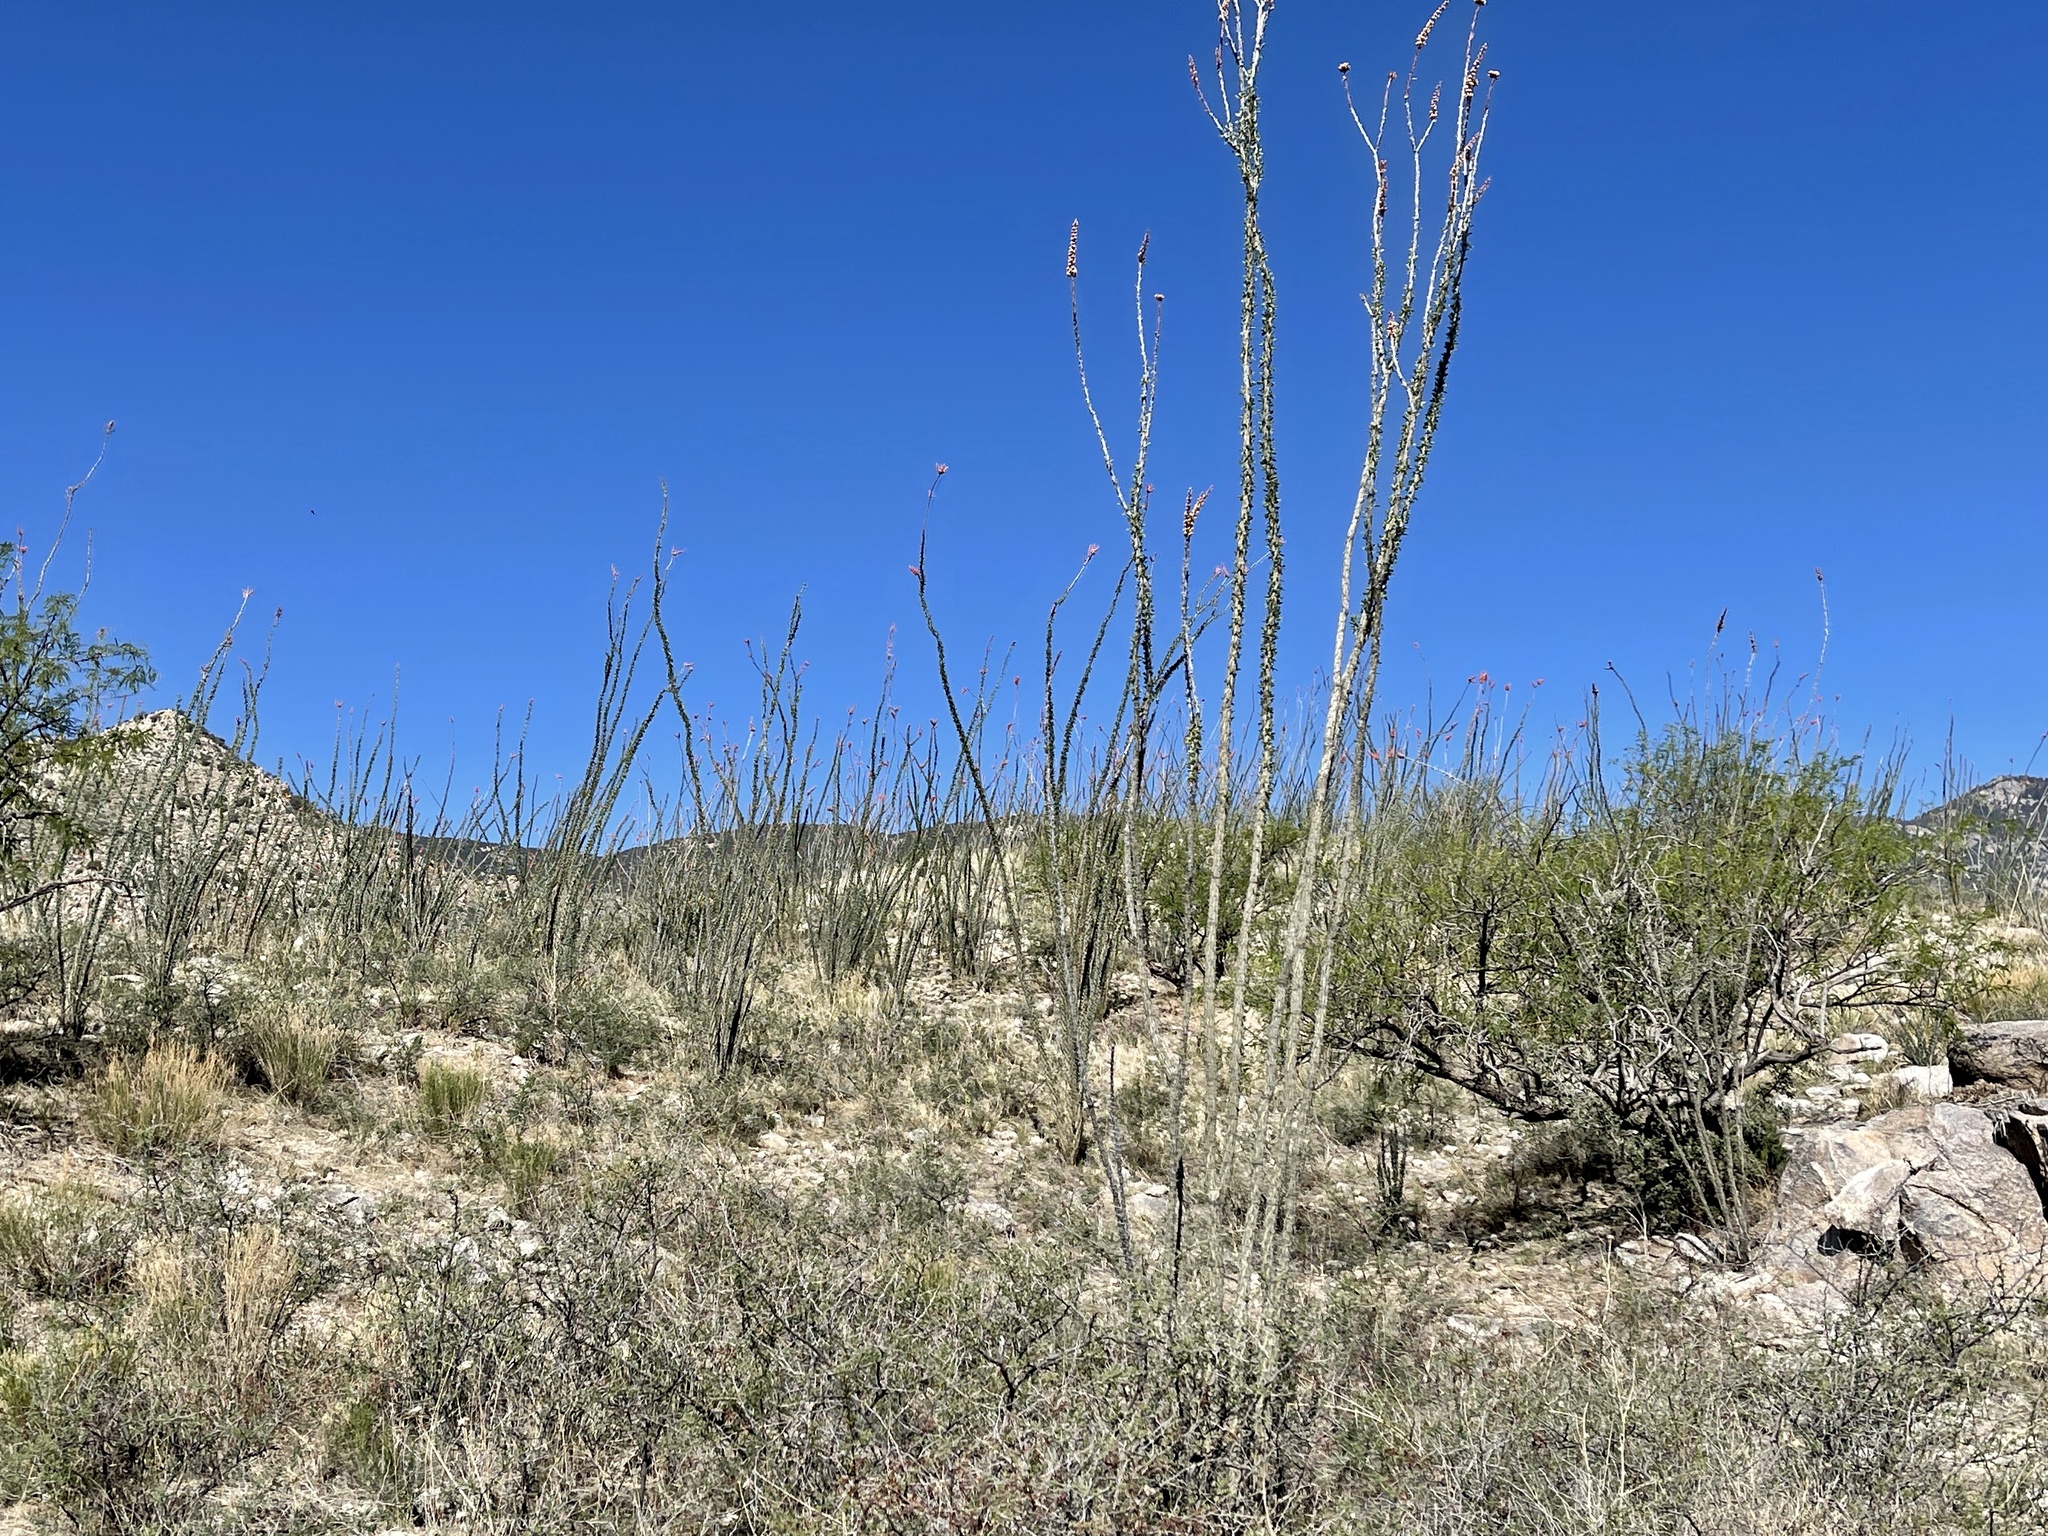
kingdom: Plantae
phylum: Tracheophyta
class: Magnoliopsida
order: Ericales
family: Fouquieriaceae
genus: Fouquieria
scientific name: Fouquieria splendens
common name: Vine-cactus
